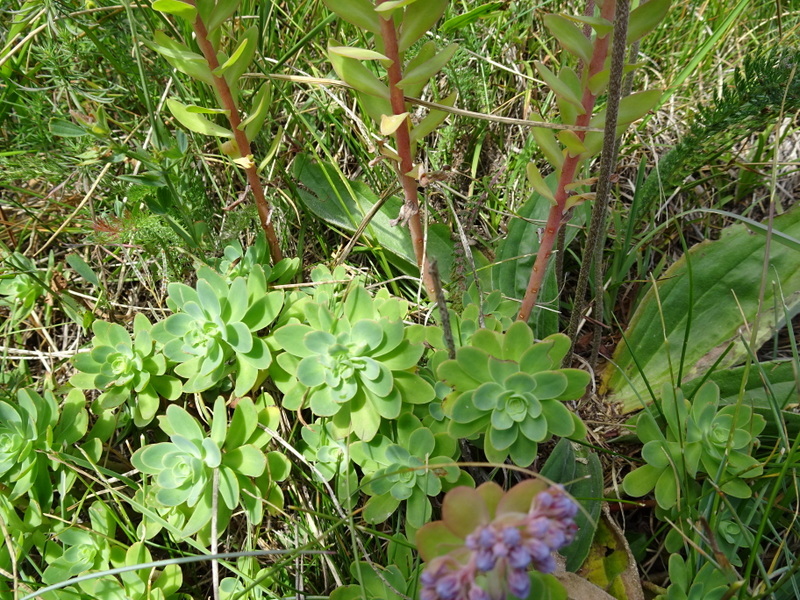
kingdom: Plantae
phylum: Tracheophyta
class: Magnoliopsida
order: Saxifragales
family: Crassulaceae
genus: Hylotelephium
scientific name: Hylotelephium anacampseros
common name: Love-restorer
